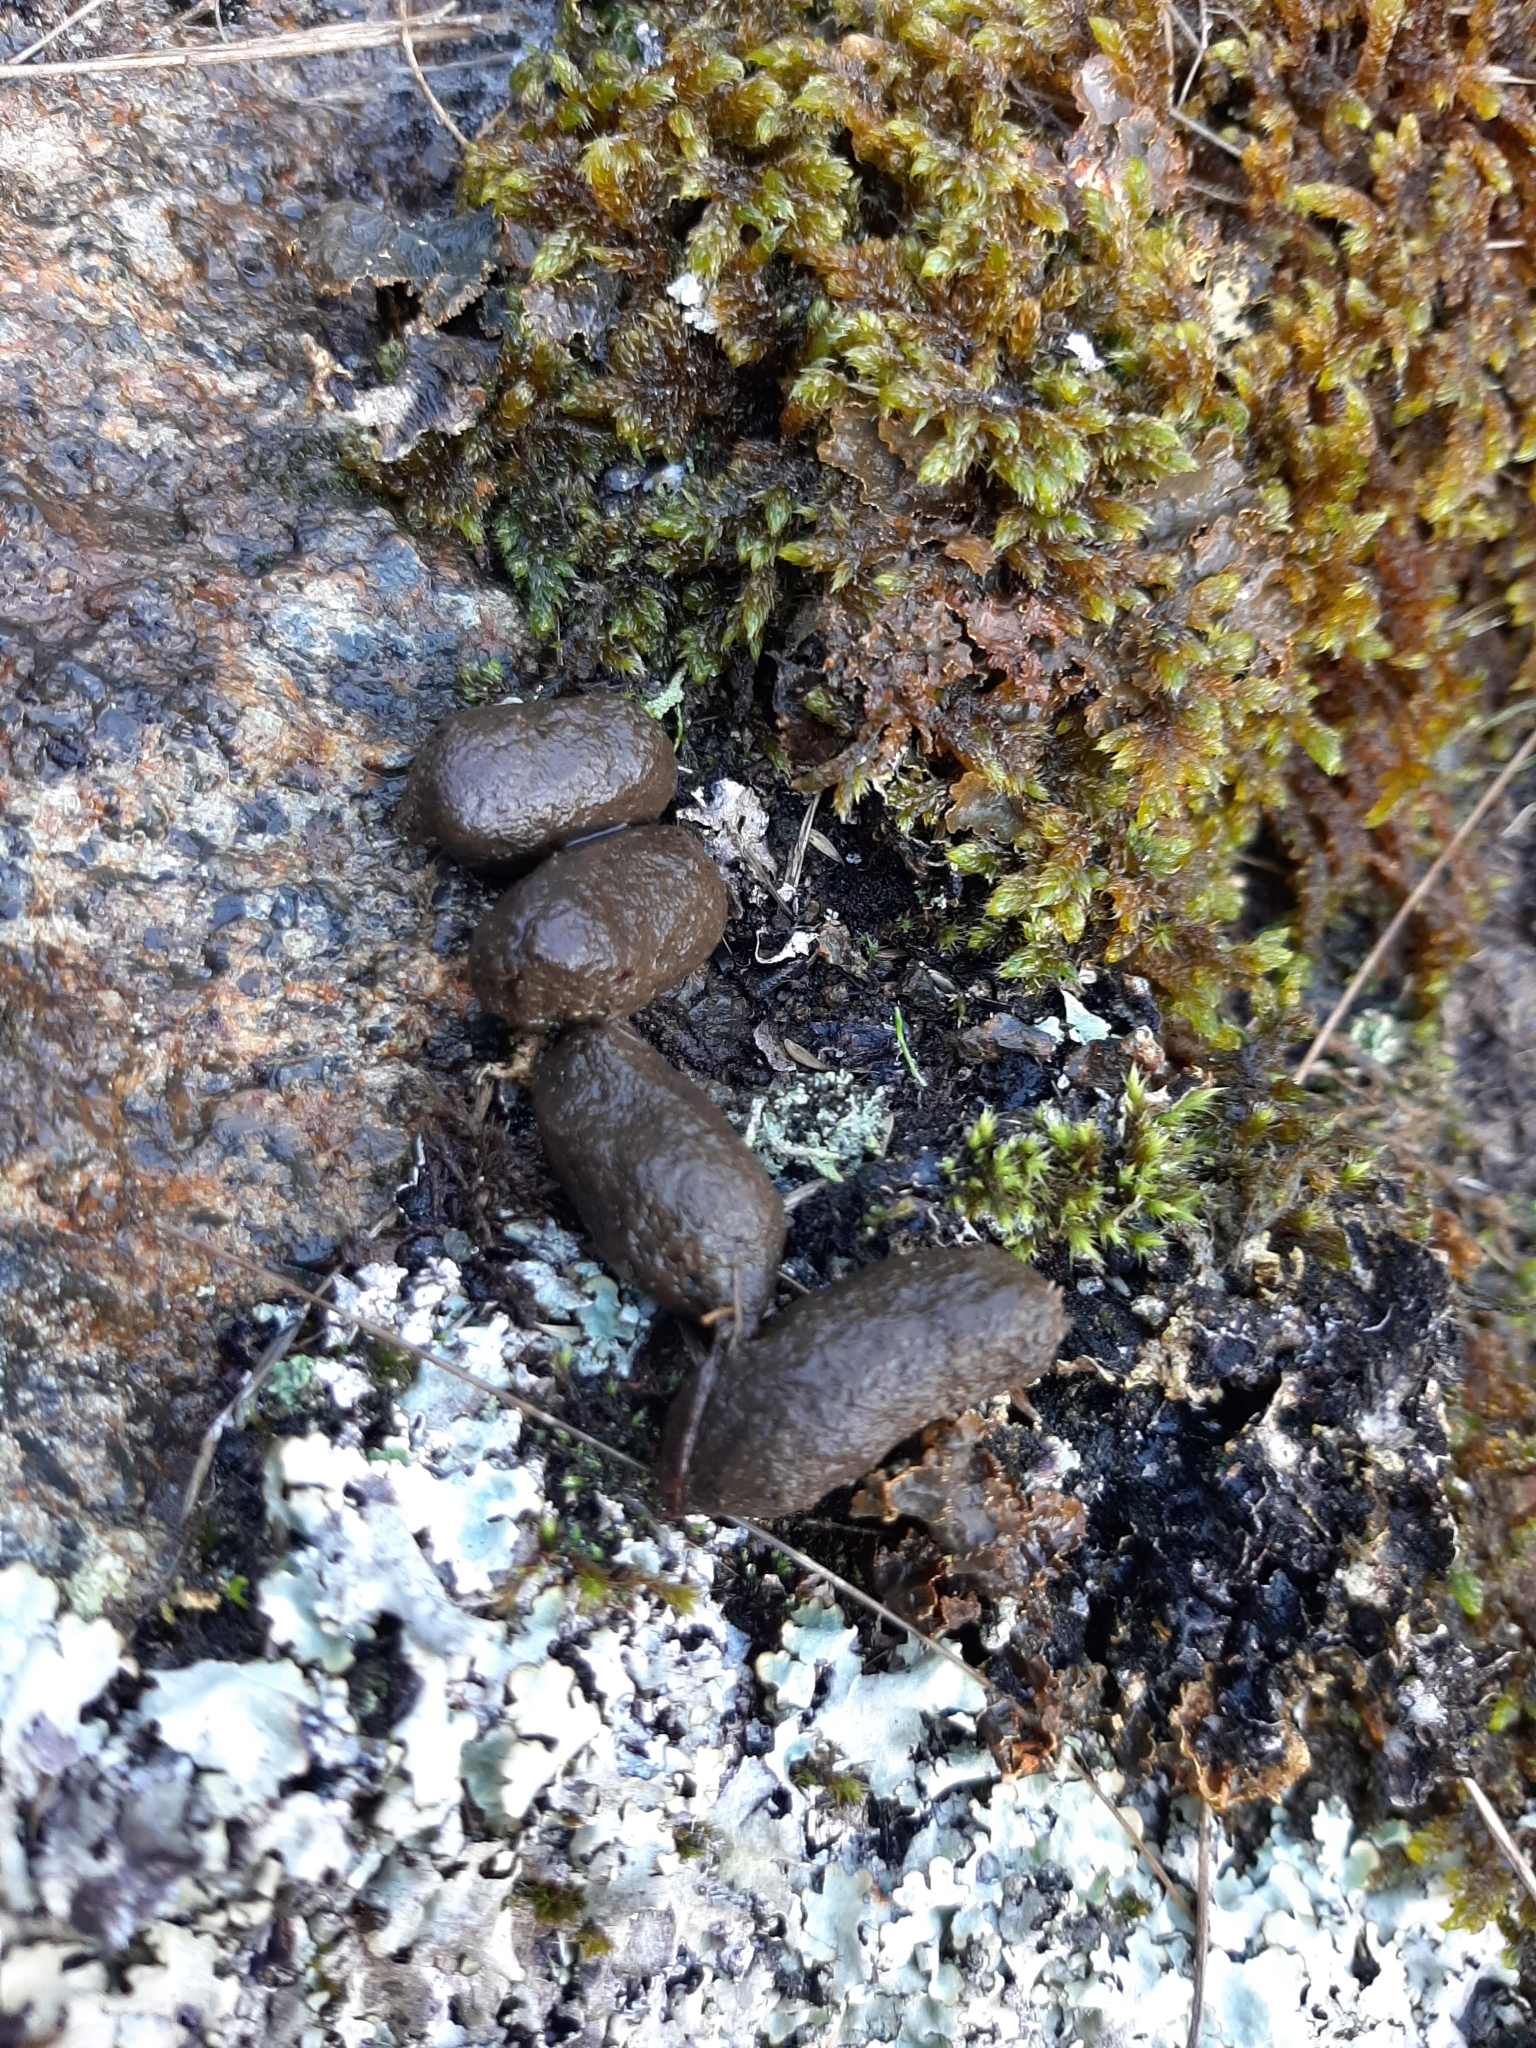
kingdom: Animalia
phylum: Chordata
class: Mammalia
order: Diprotodontia
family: Phalangeridae
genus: Trichosurus
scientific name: Trichosurus vulpecula
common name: Common brushtail
